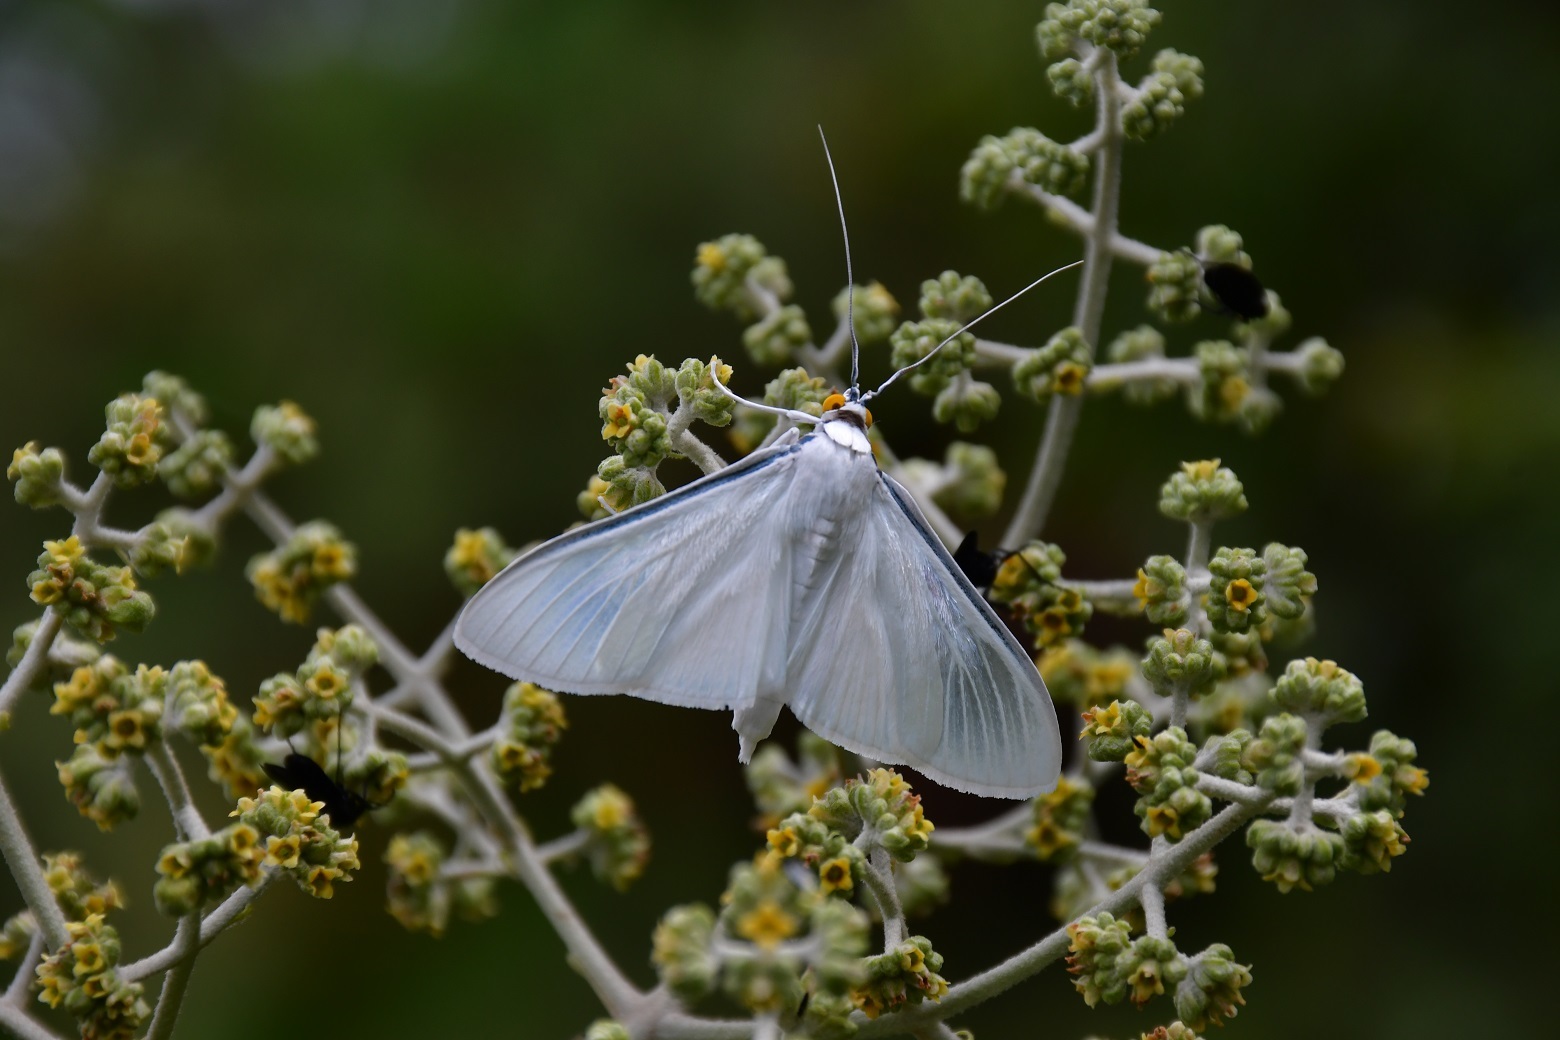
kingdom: Animalia
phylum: Arthropoda
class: Insecta
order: Lepidoptera
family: Crambidae
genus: Palpita
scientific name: Palpita flegia
